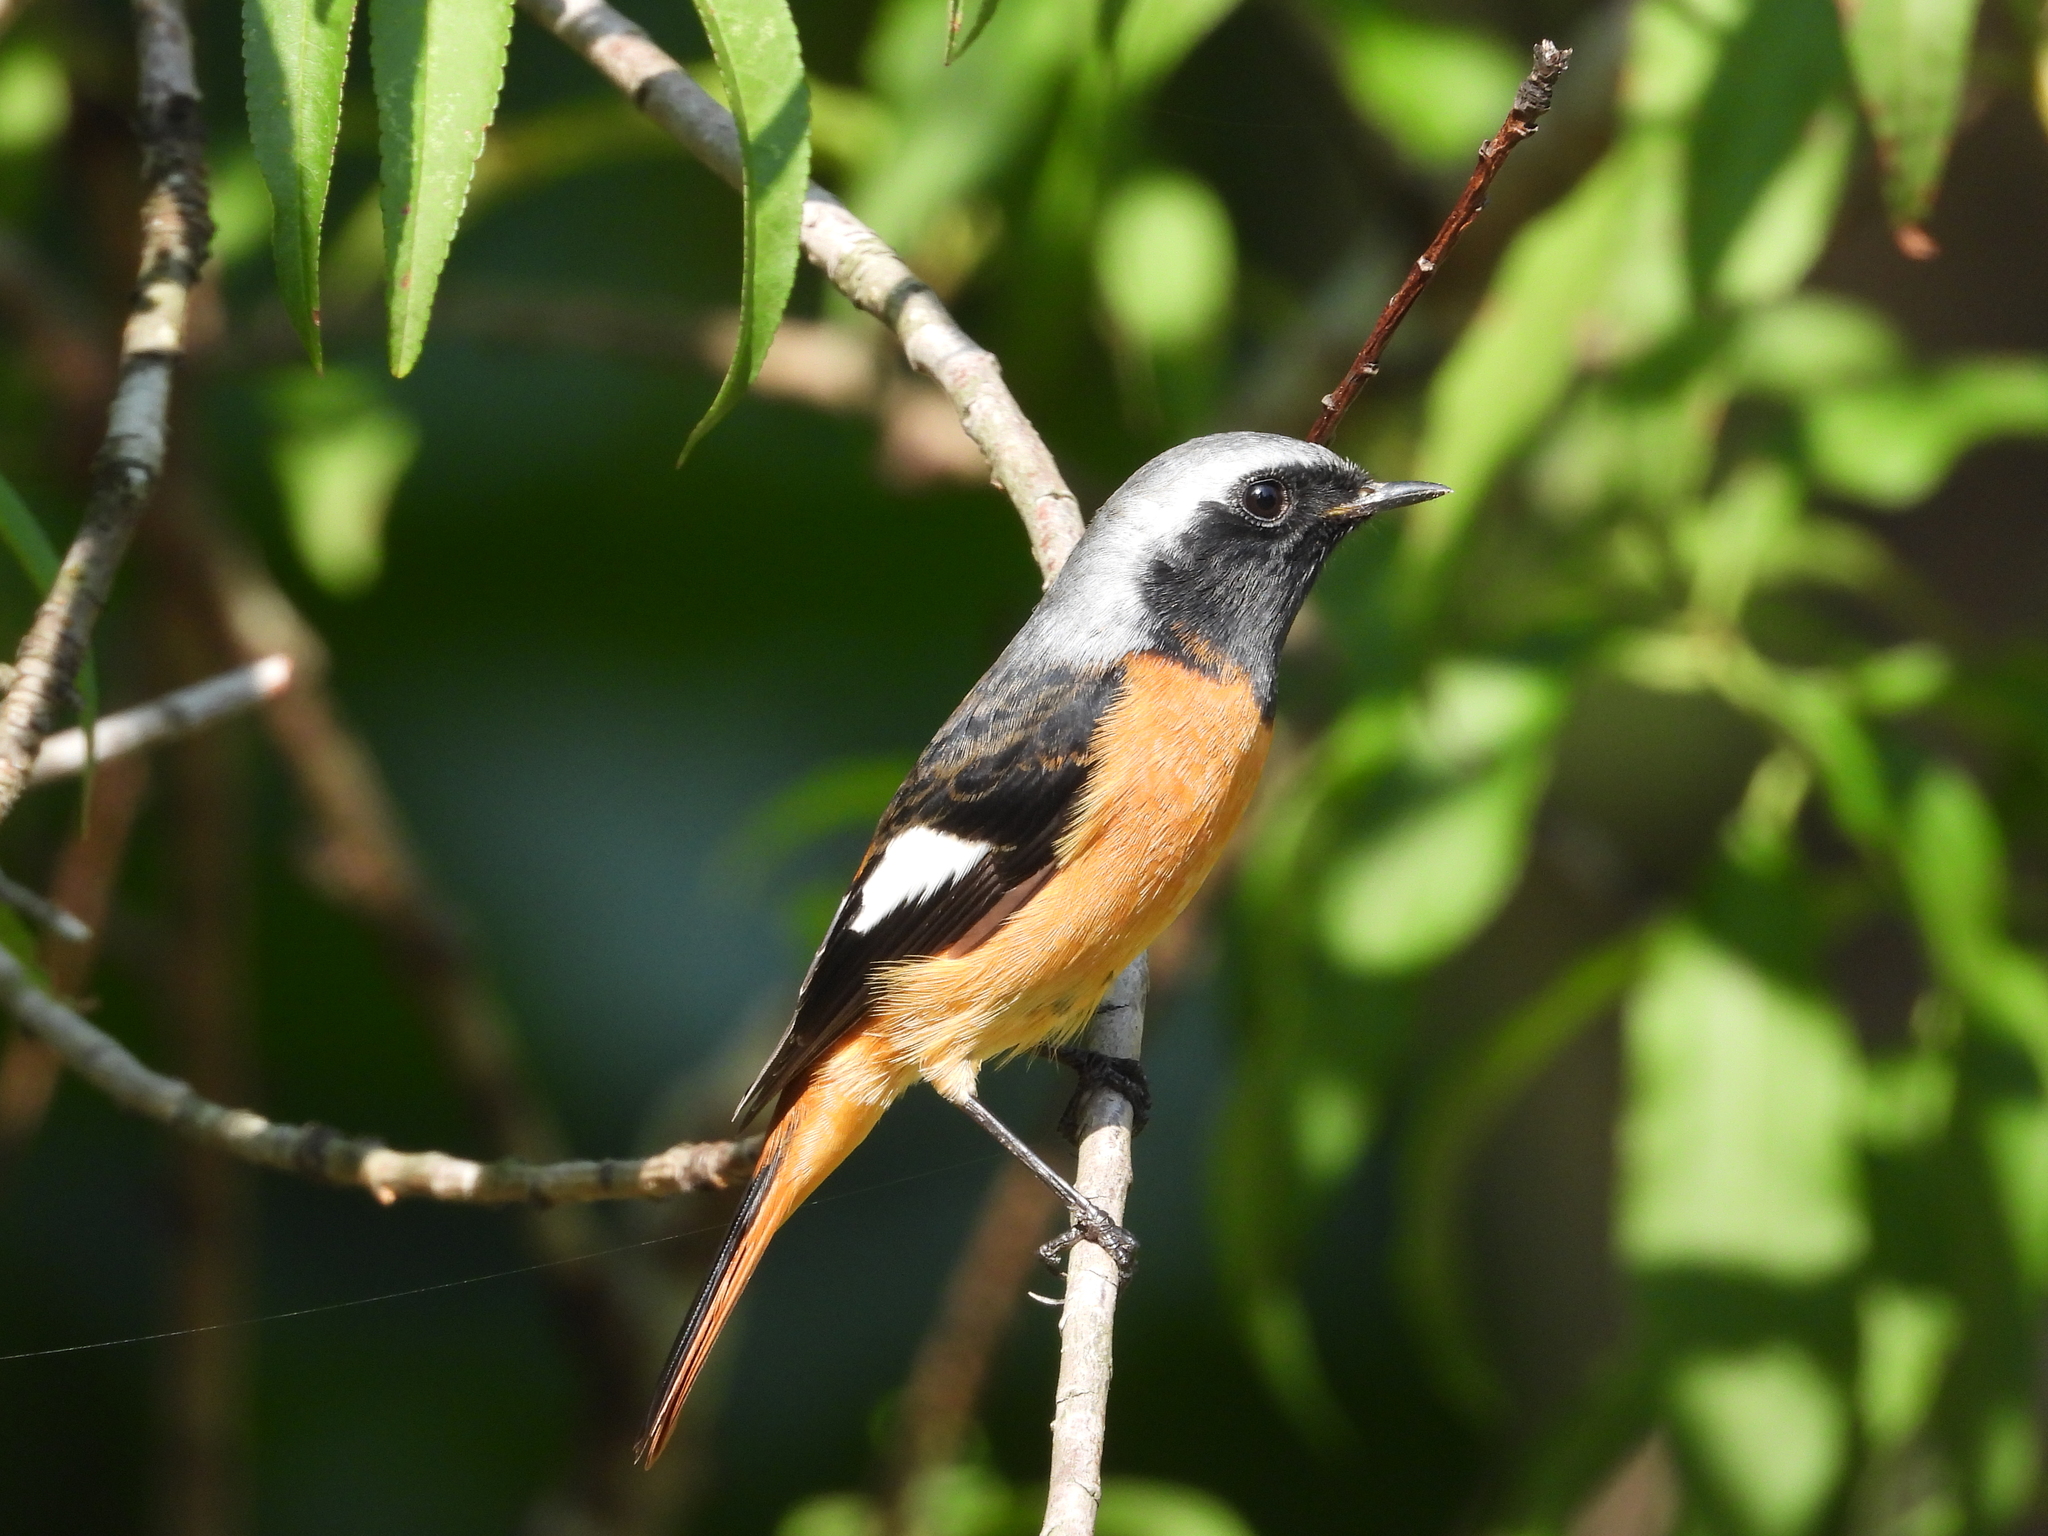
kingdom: Animalia
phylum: Chordata
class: Aves
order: Passeriformes
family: Muscicapidae
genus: Phoenicurus
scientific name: Phoenicurus auroreus
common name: Daurian redstart
